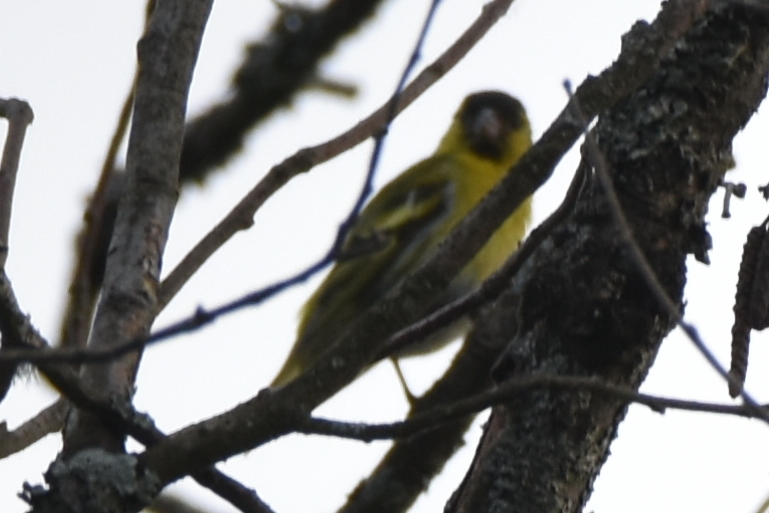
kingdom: Animalia
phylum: Chordata
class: Aves
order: Passeriformes
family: Fringillidae
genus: Spinus
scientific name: Spinus spinus
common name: Eurasian siskin
